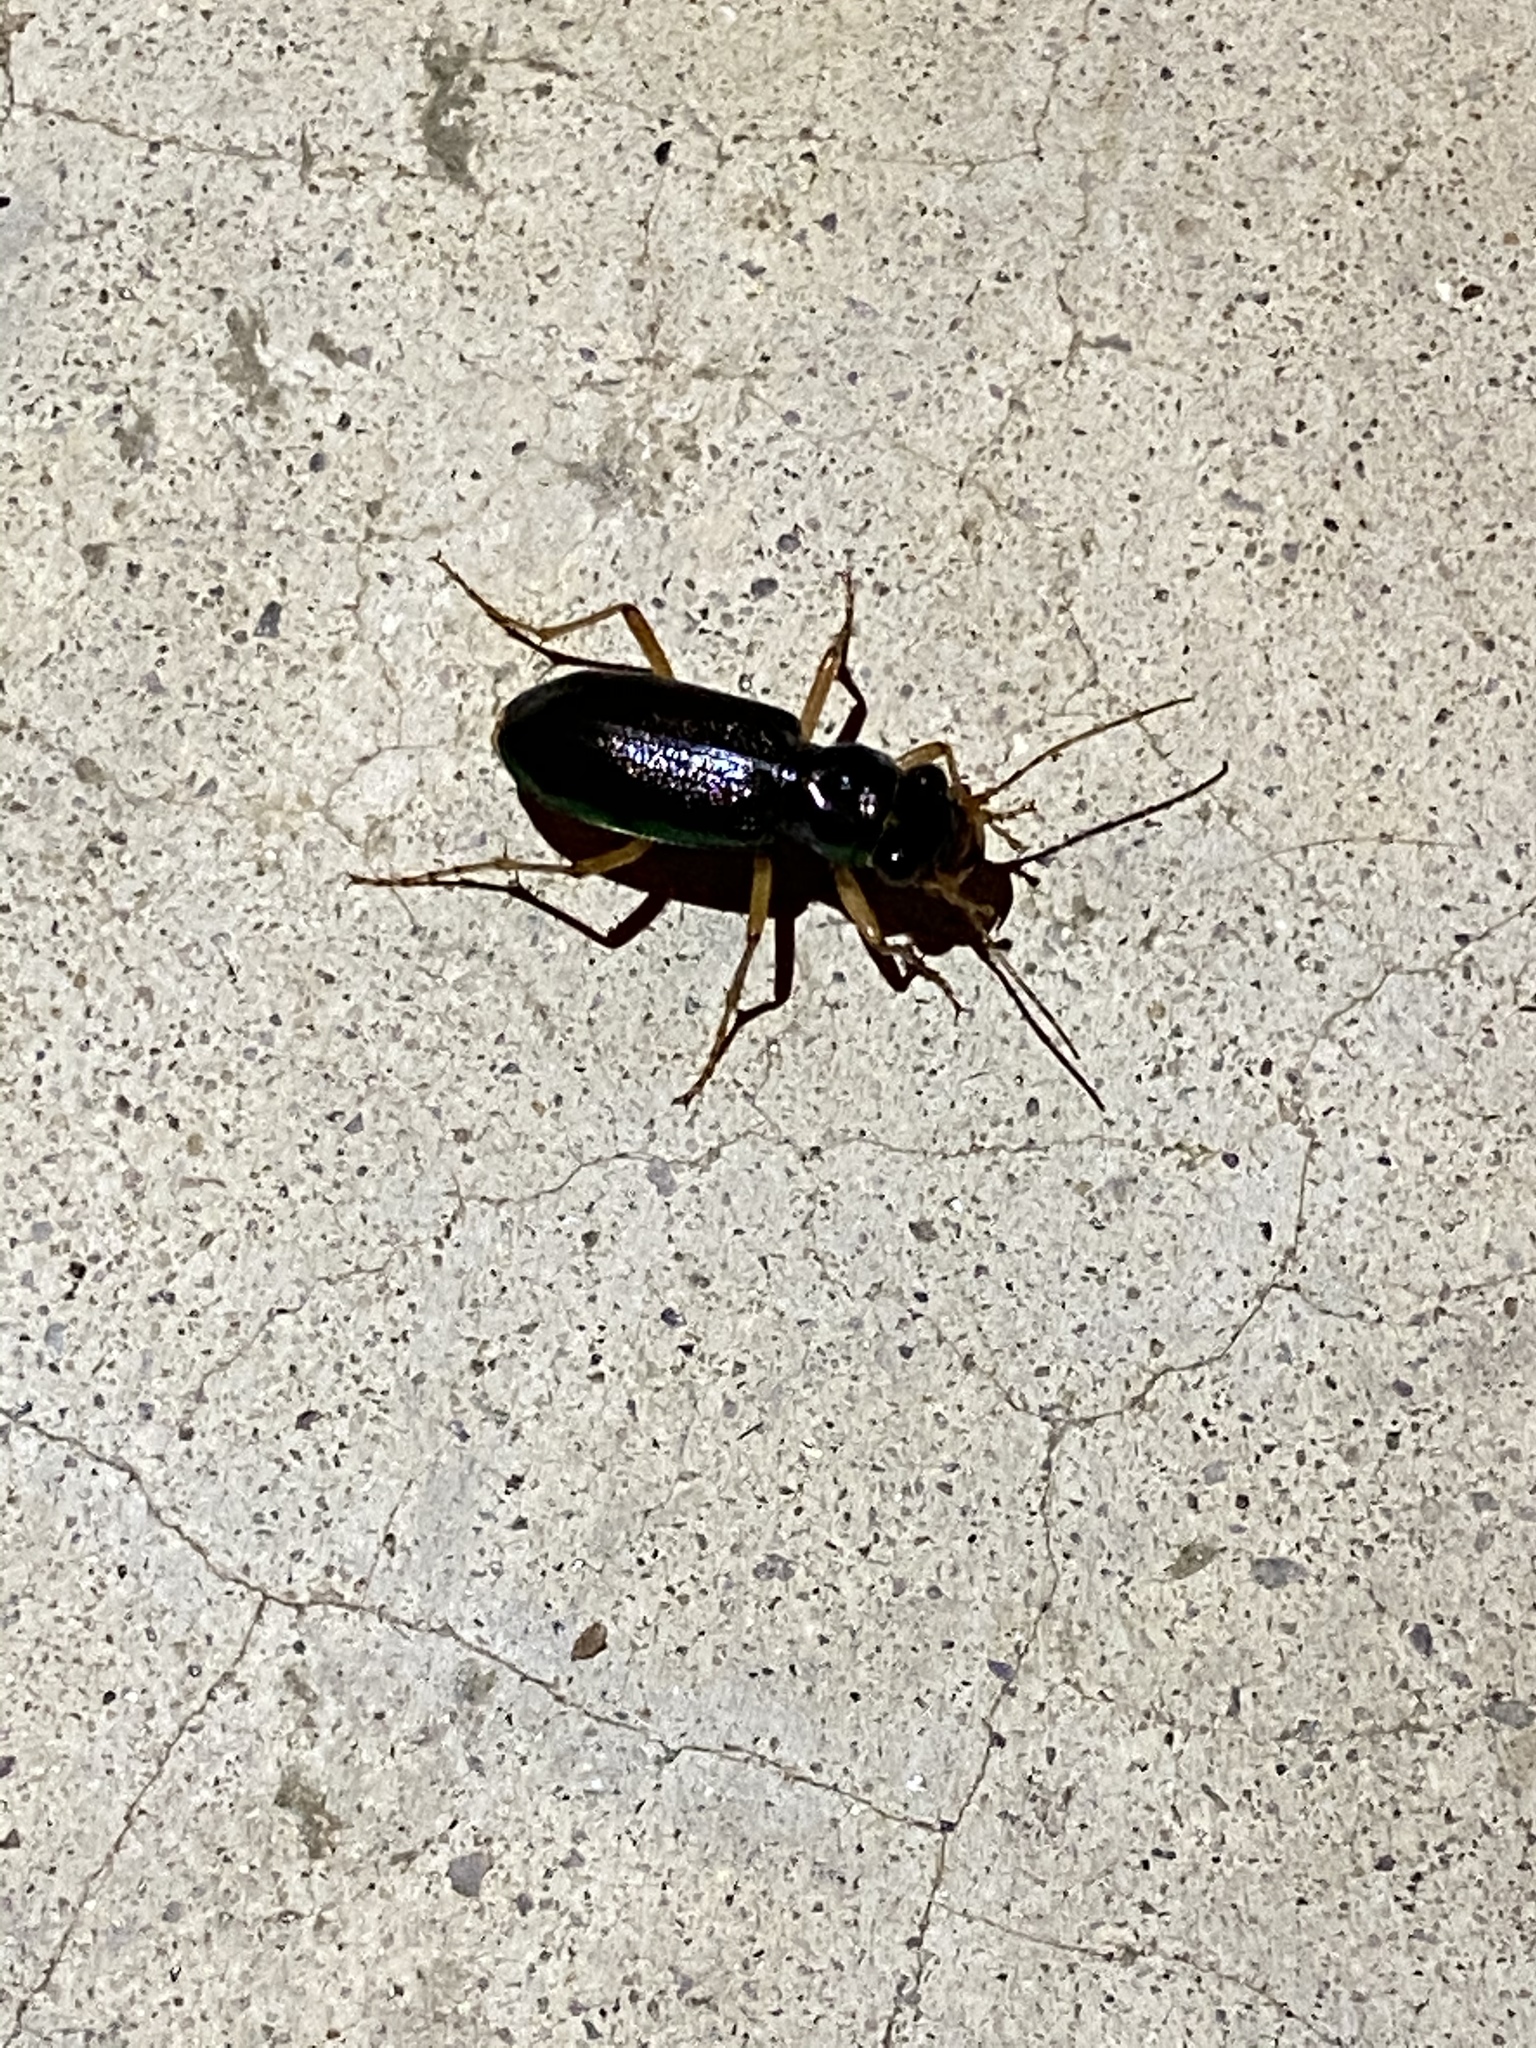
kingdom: Animalia
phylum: Arthropoda
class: Insecta
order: Coleoptera
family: Carabidae
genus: Tetracha
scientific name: Tetracha virginica
